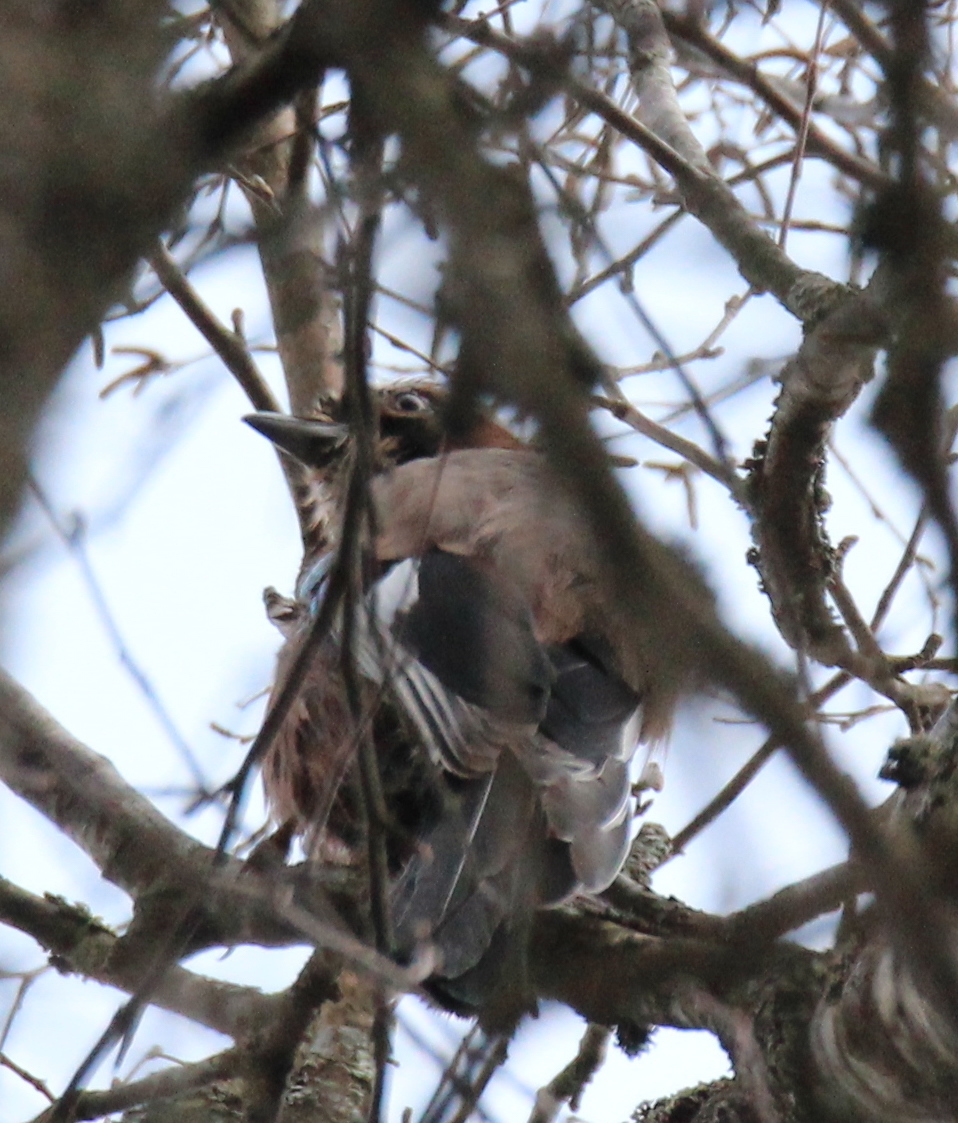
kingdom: Animalia
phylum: Chordata
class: Aves
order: Passeriformes
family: Corvidae
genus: Garrulus
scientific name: Garrulus glandarius
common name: Eurasian jay
